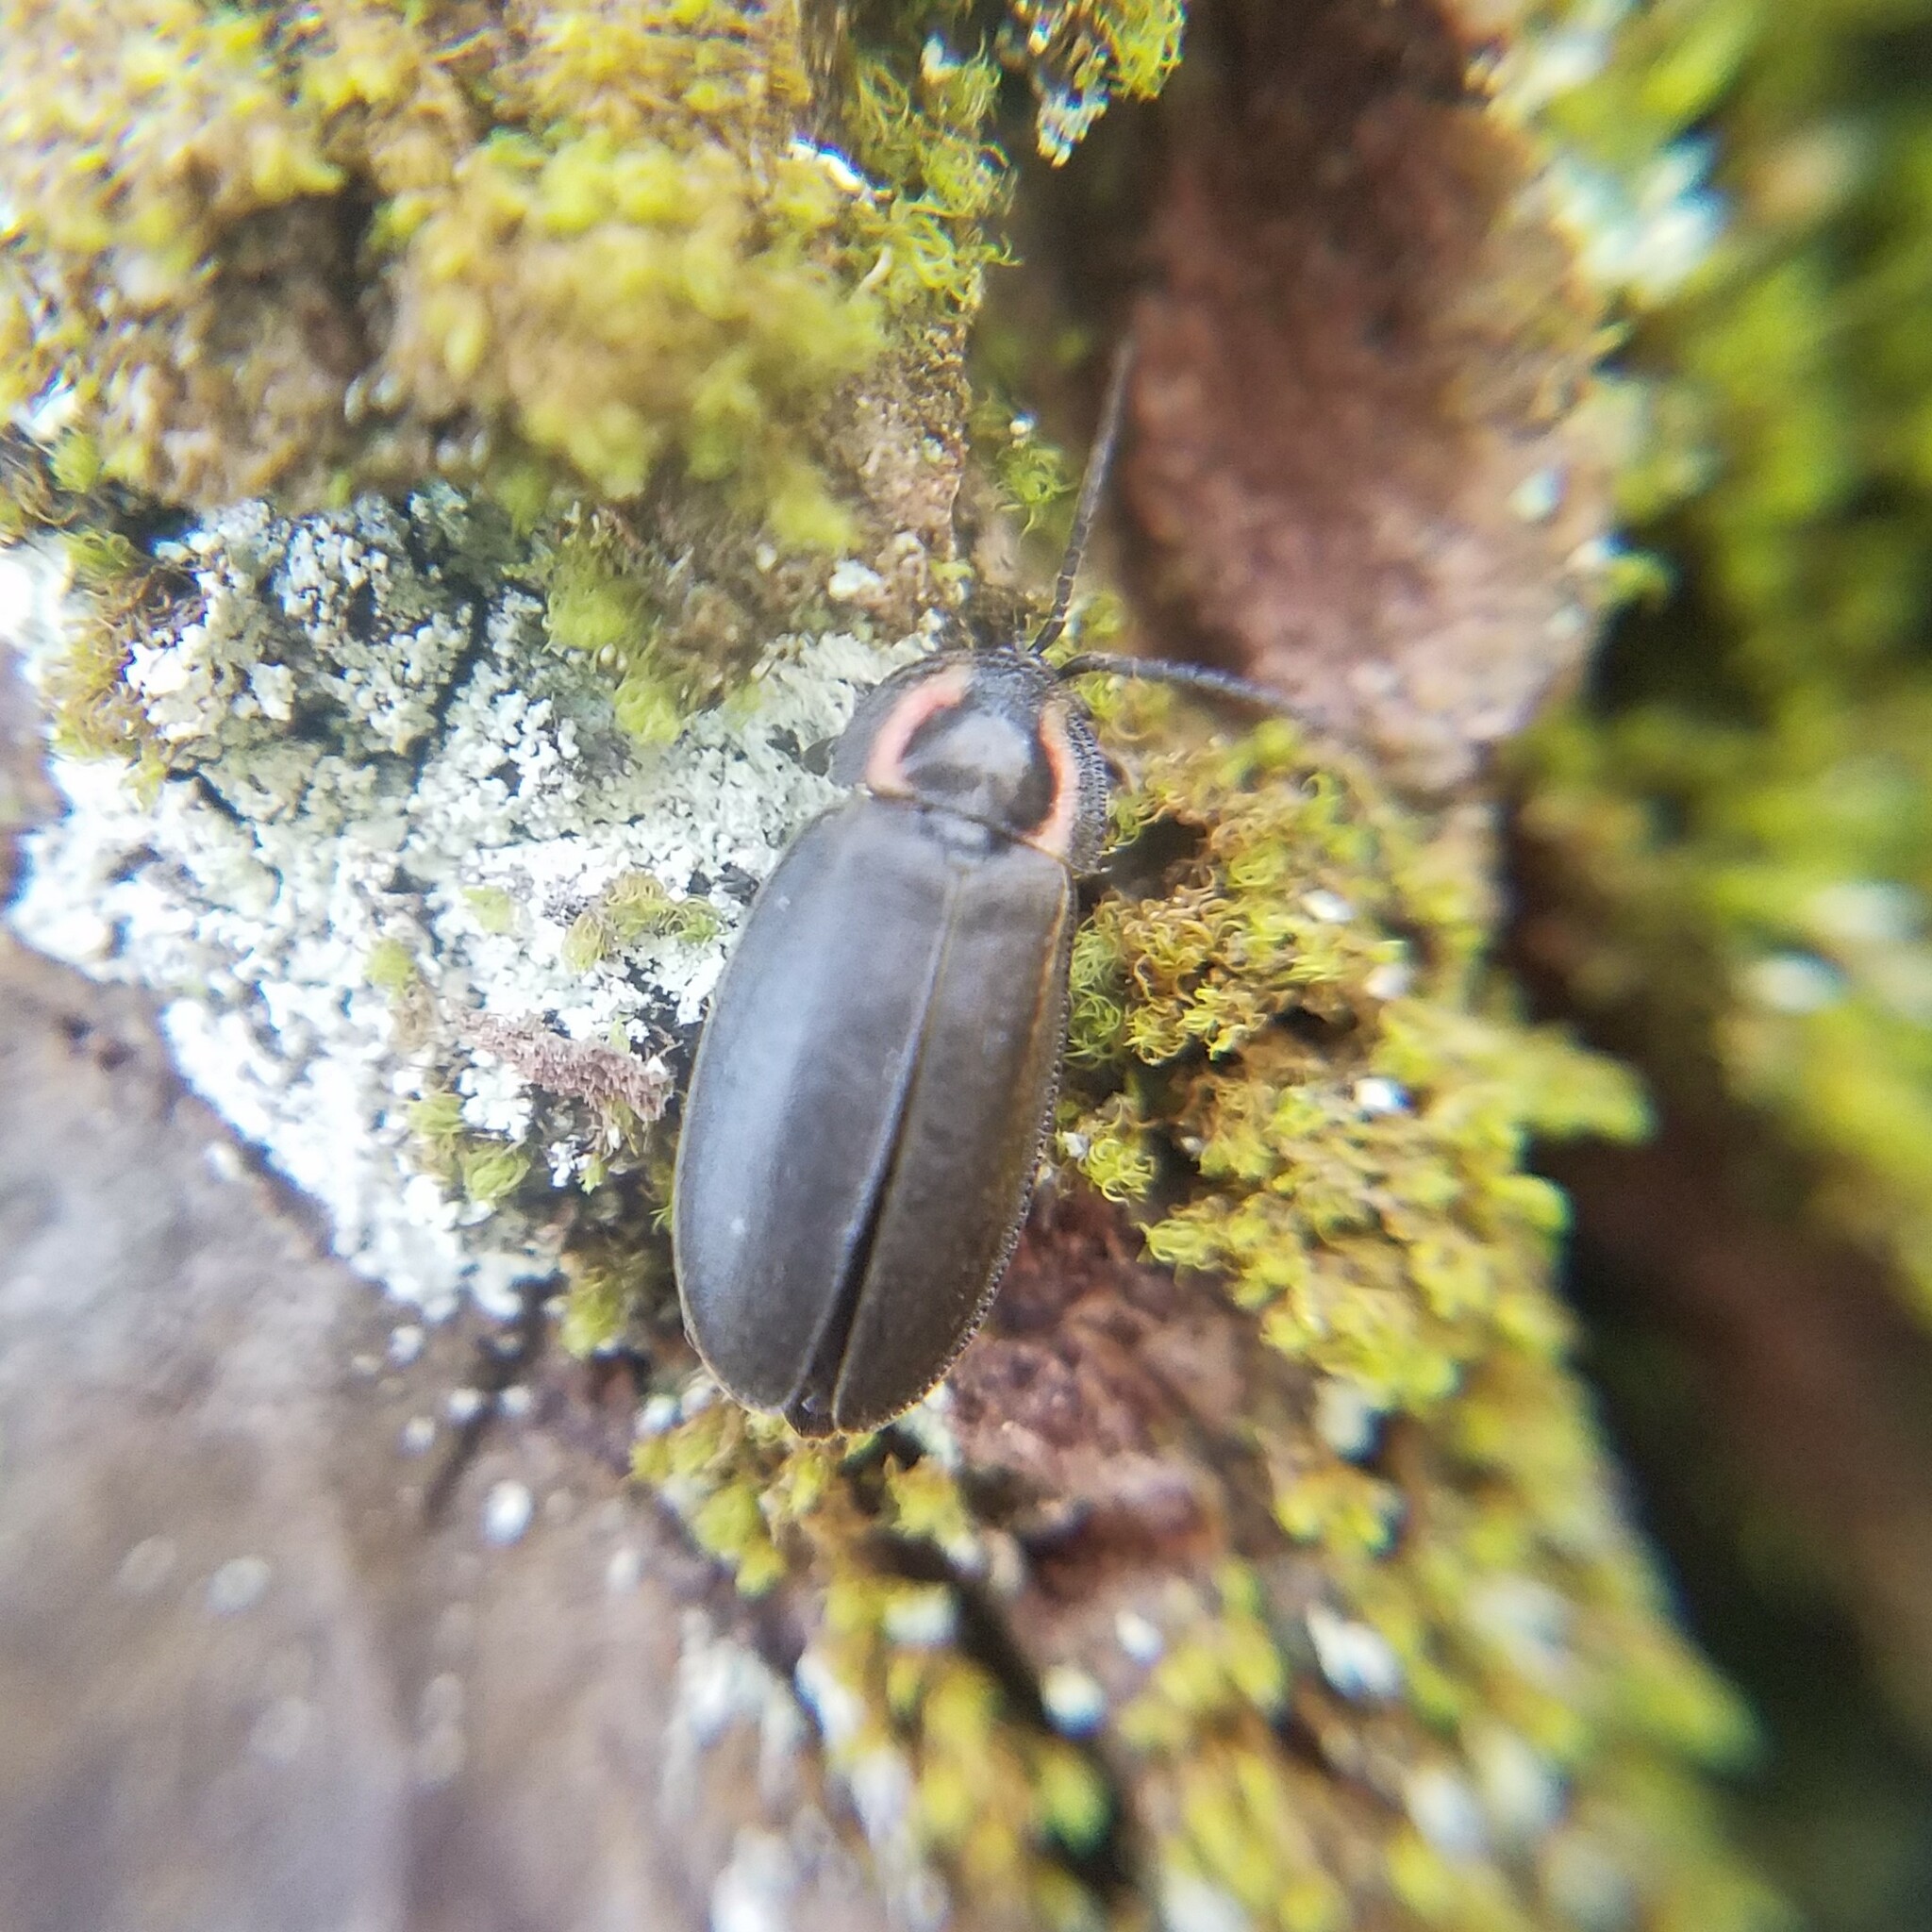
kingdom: Animalia
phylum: Arthropoda
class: Insecta
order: Coleoptera
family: Lampyridae
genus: Photinus
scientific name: Photinus corrusca
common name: Winter firefly
